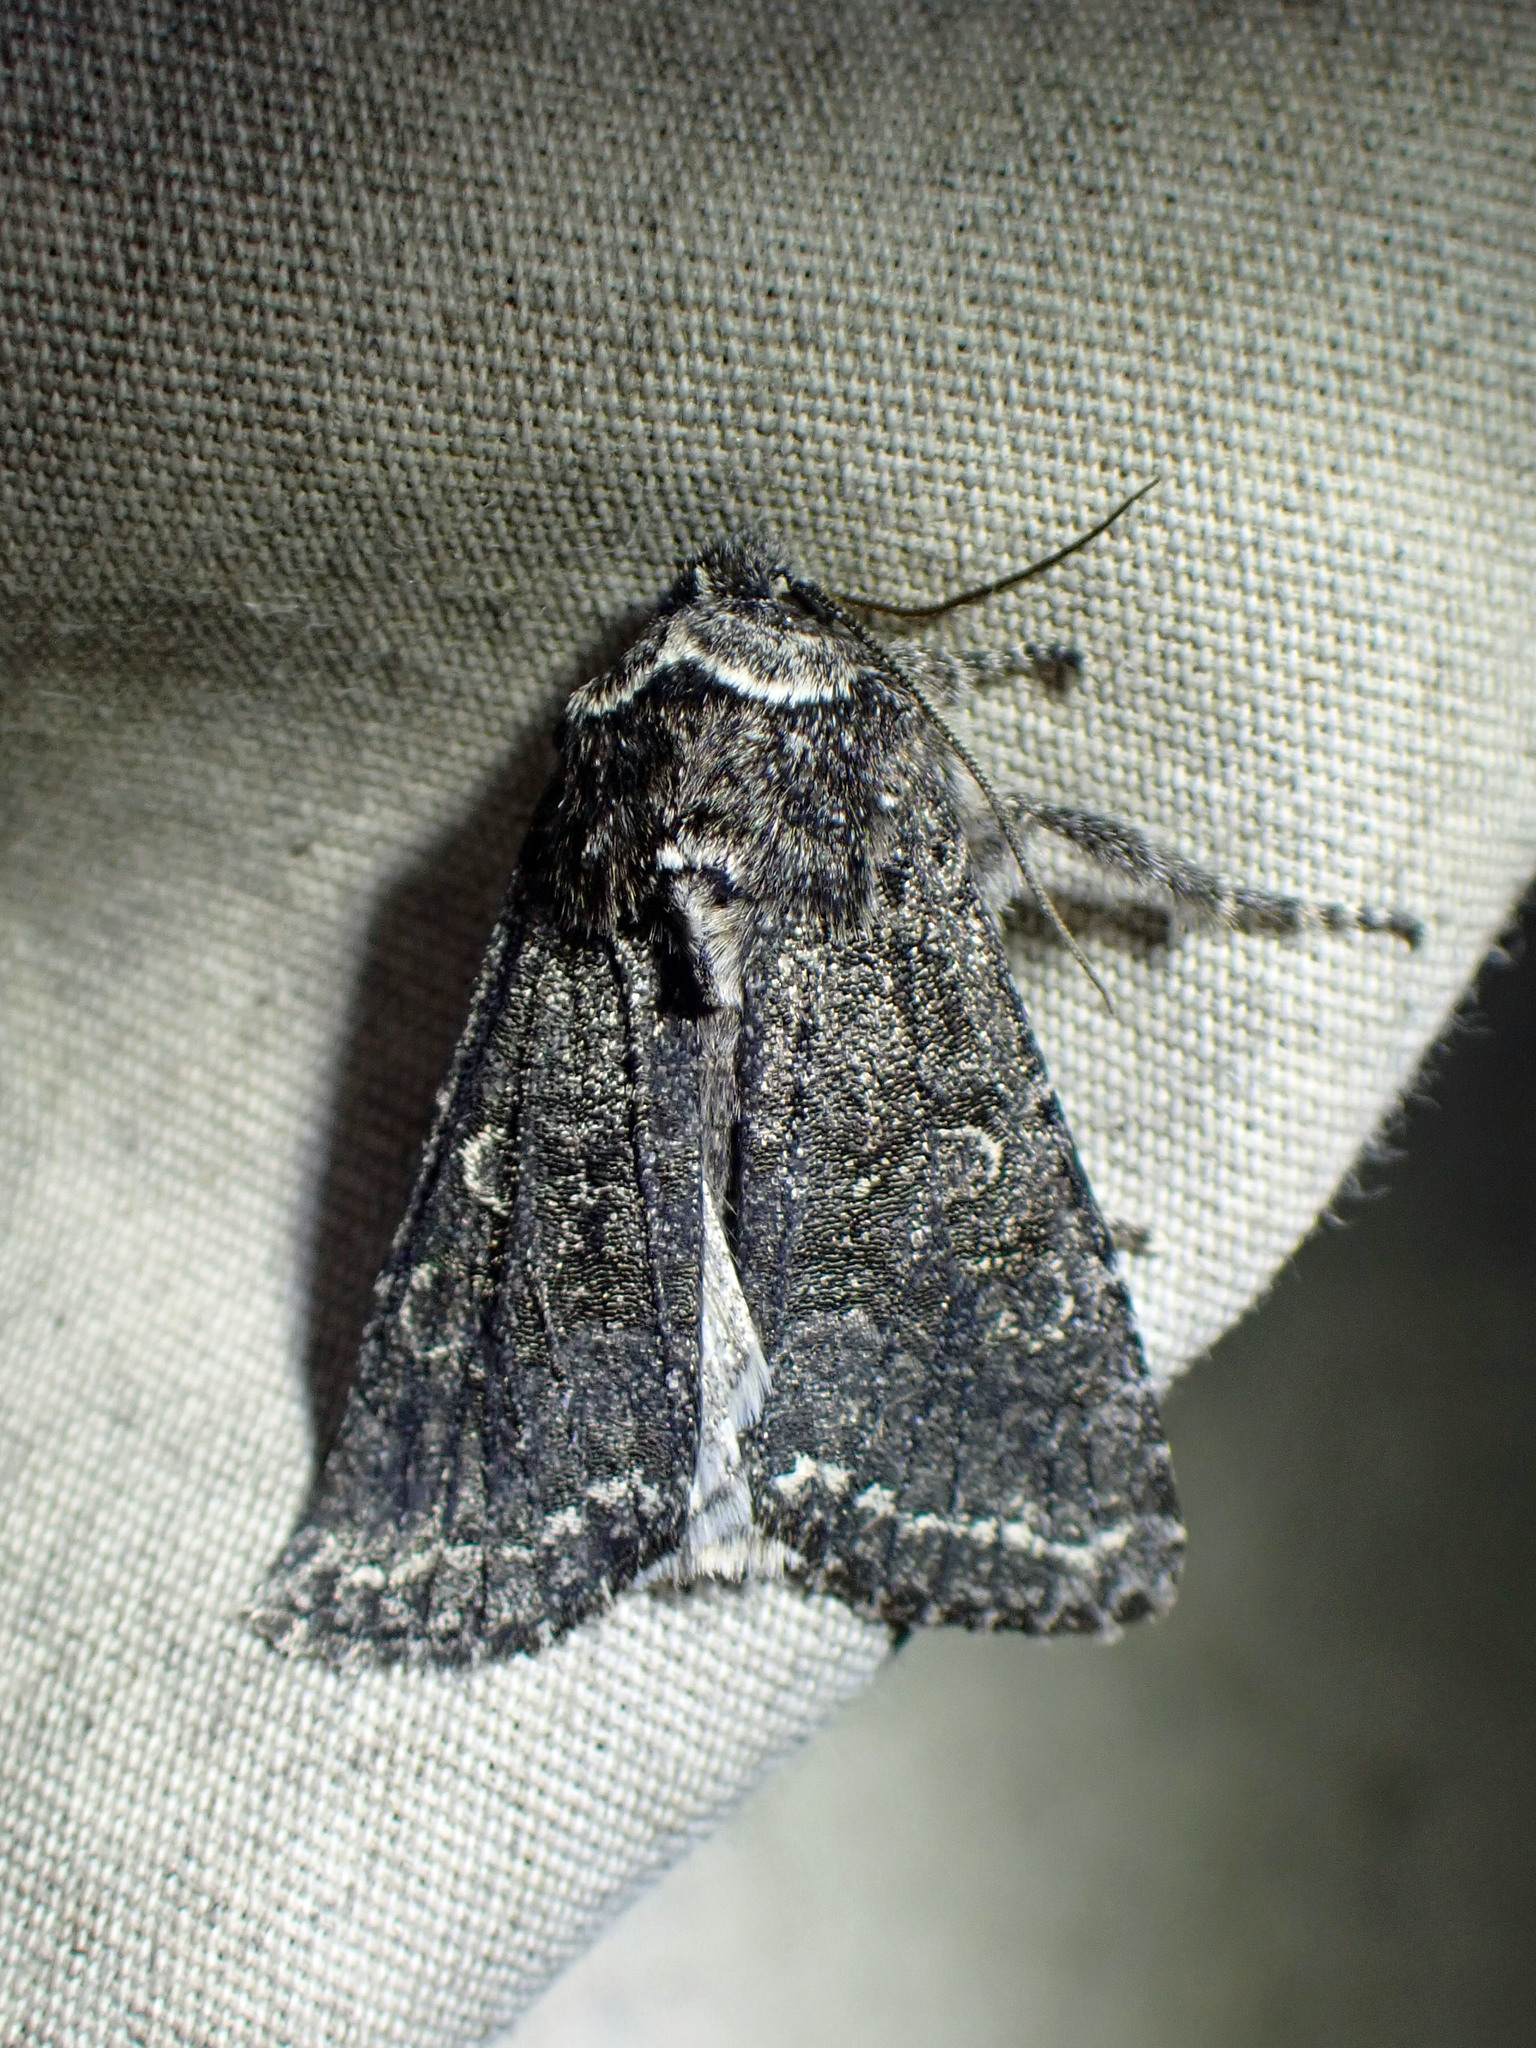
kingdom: Animalia
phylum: Arthropoda
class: Insecta
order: Lepidoptera
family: Noctuidae
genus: Egira
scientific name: Egira dolosa
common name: Lined black aspen cat.
